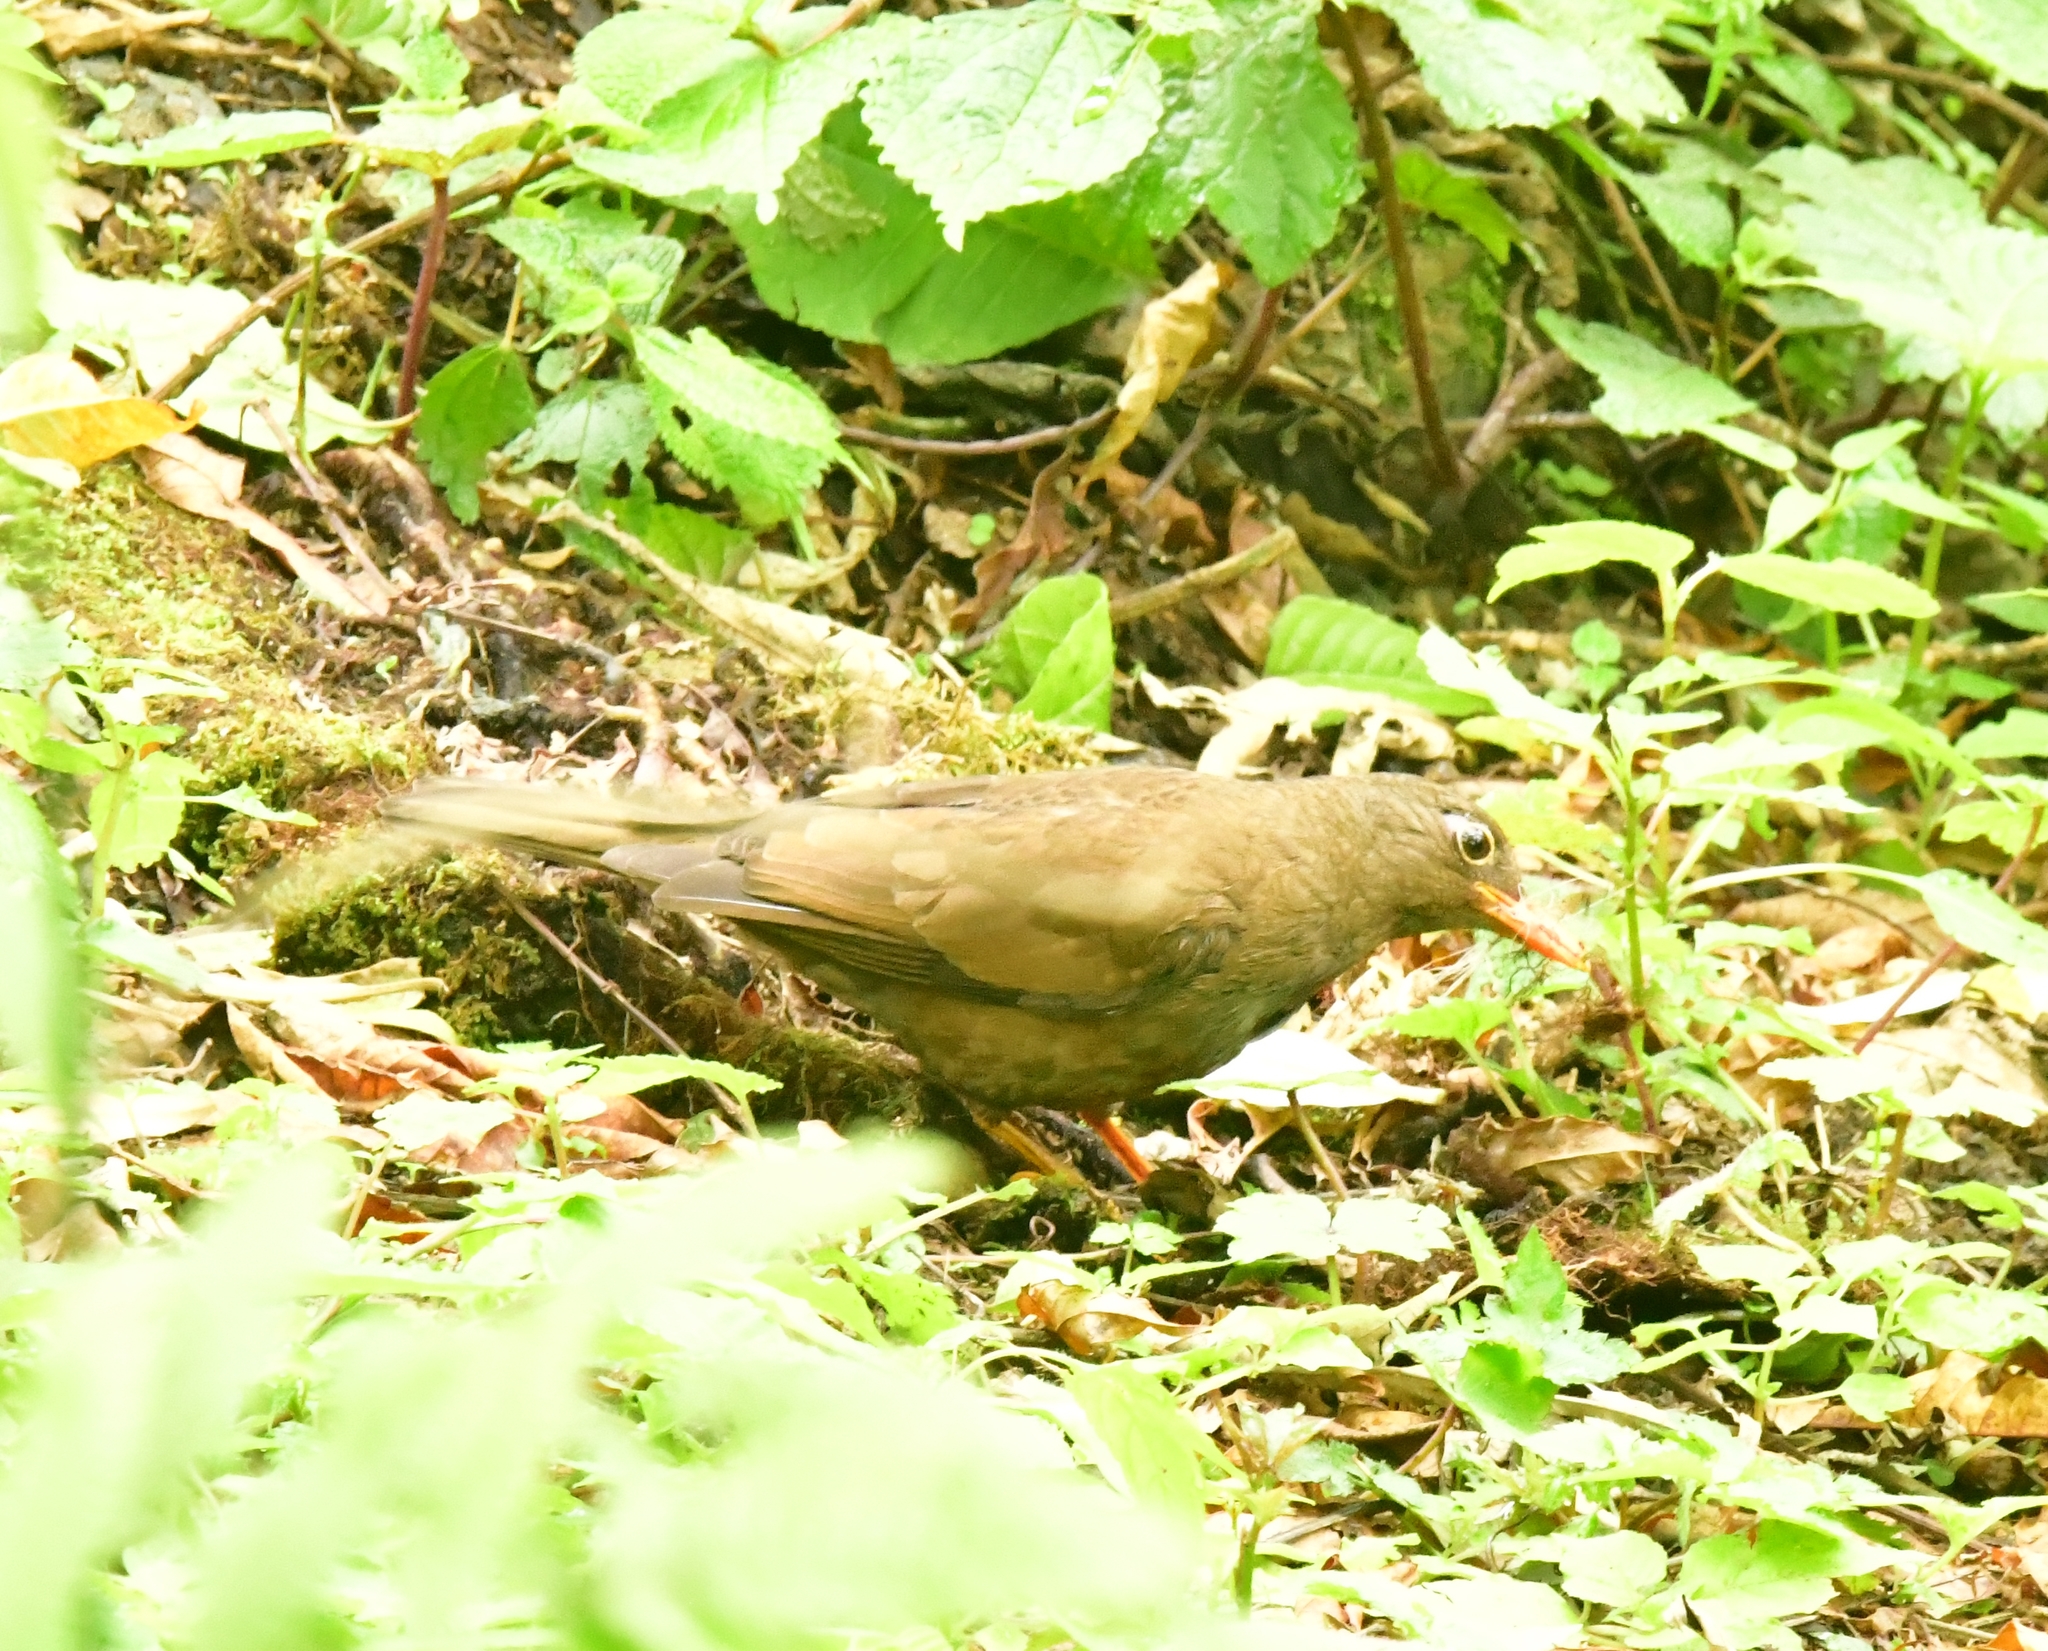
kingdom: Animalia
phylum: Chordata
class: Aves
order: Passeriformes
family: Turdidae
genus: Turdus
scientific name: Turdus boulboul
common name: Grey-winged blackbird
